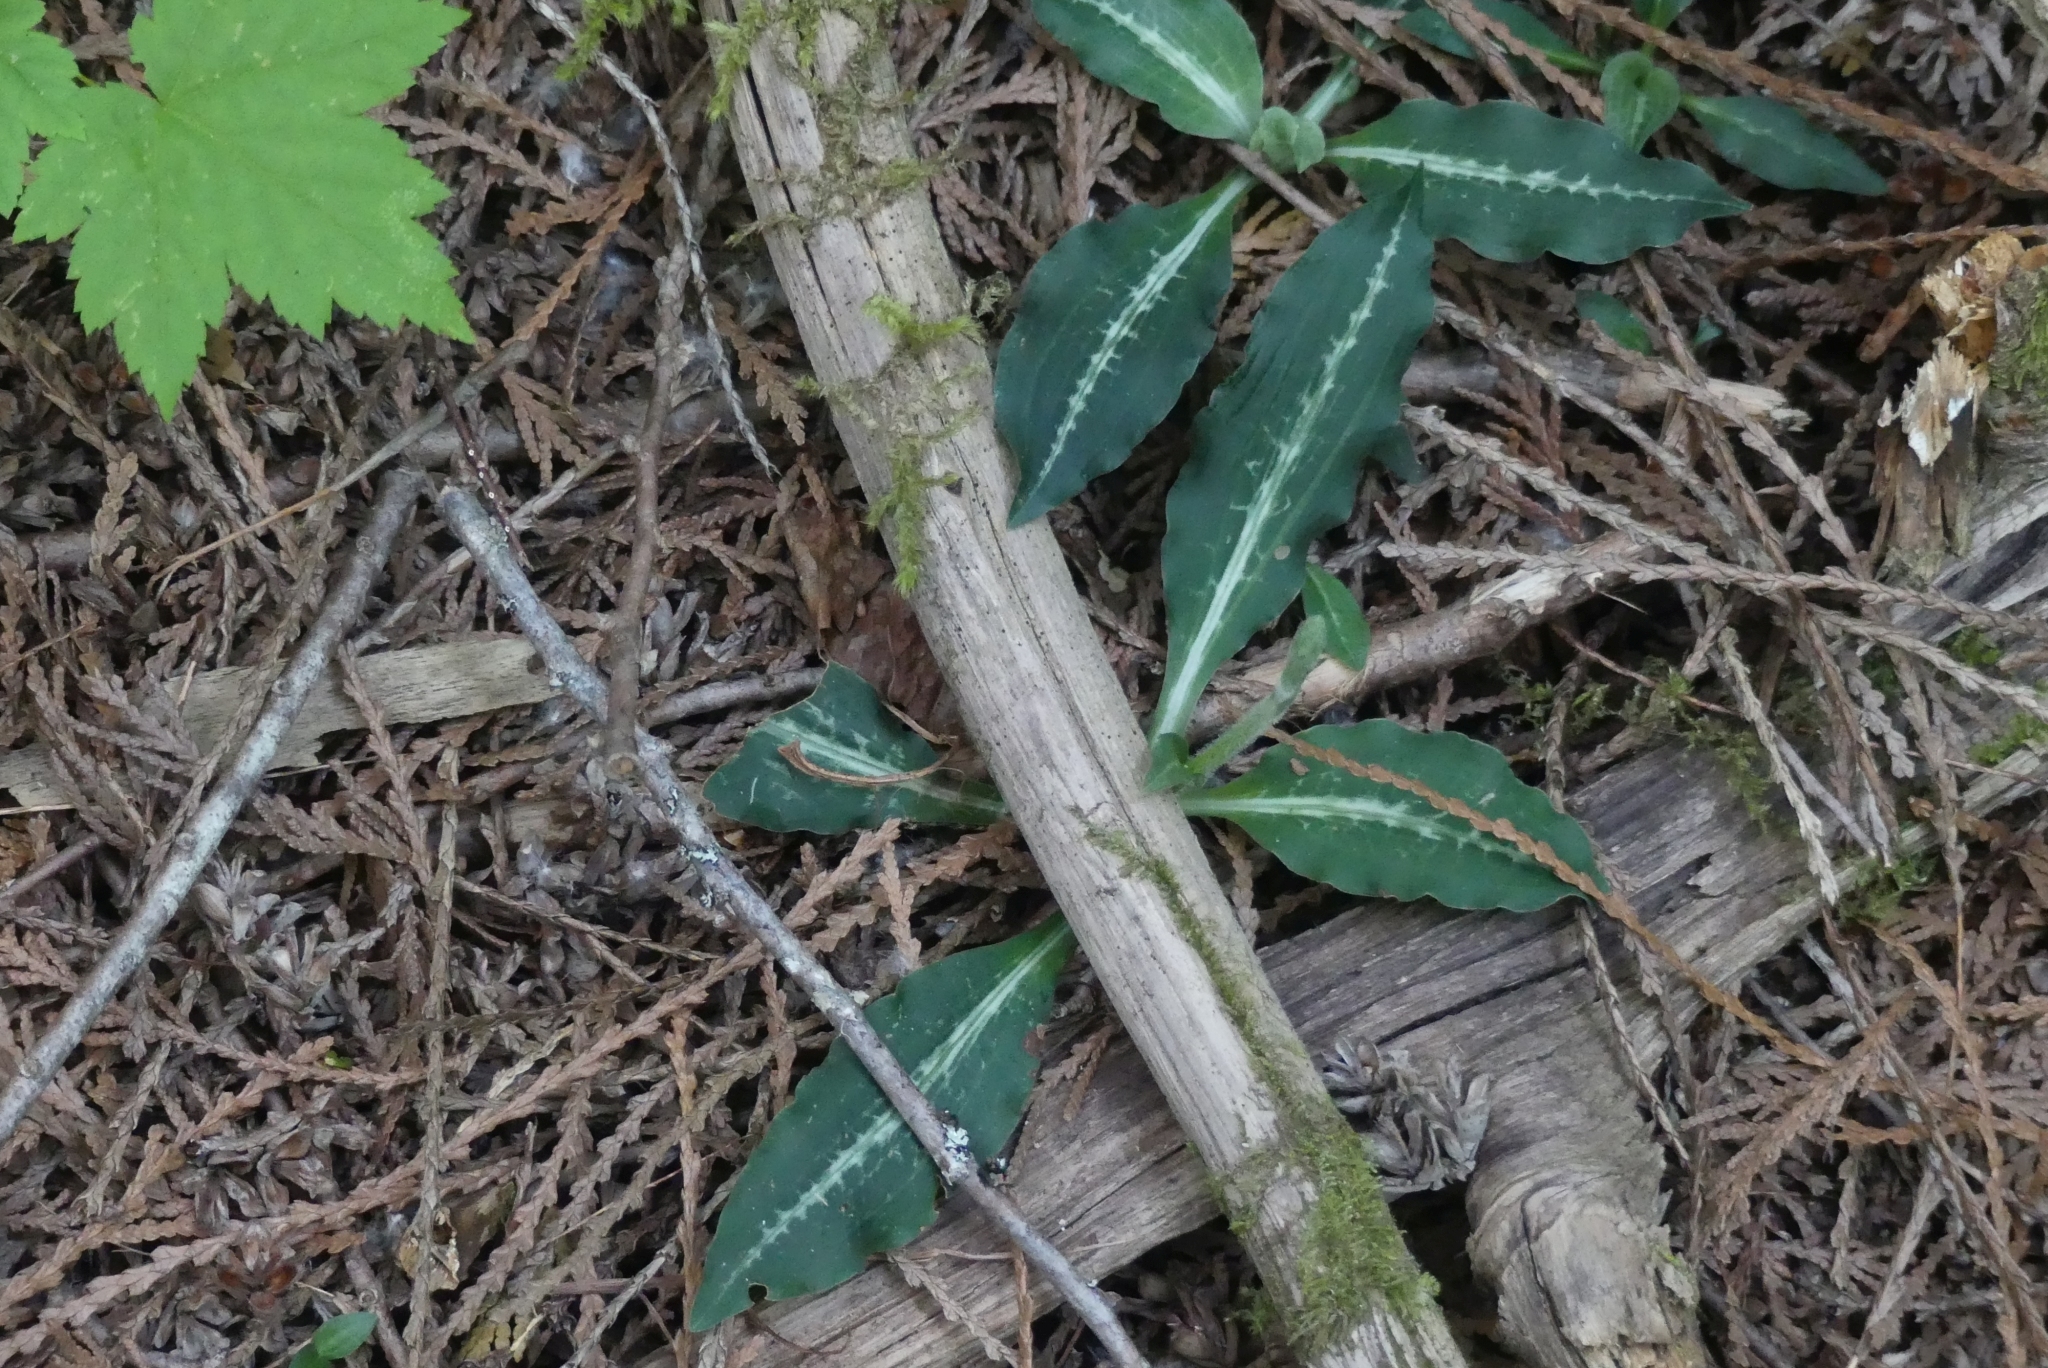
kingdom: Plantae
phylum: Tracheophyta
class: Liliopsida
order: Asparagales
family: Orchidaceae
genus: Goodyera
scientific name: Goodyera oblongifolia
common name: Giant rattlesnake-plantain
